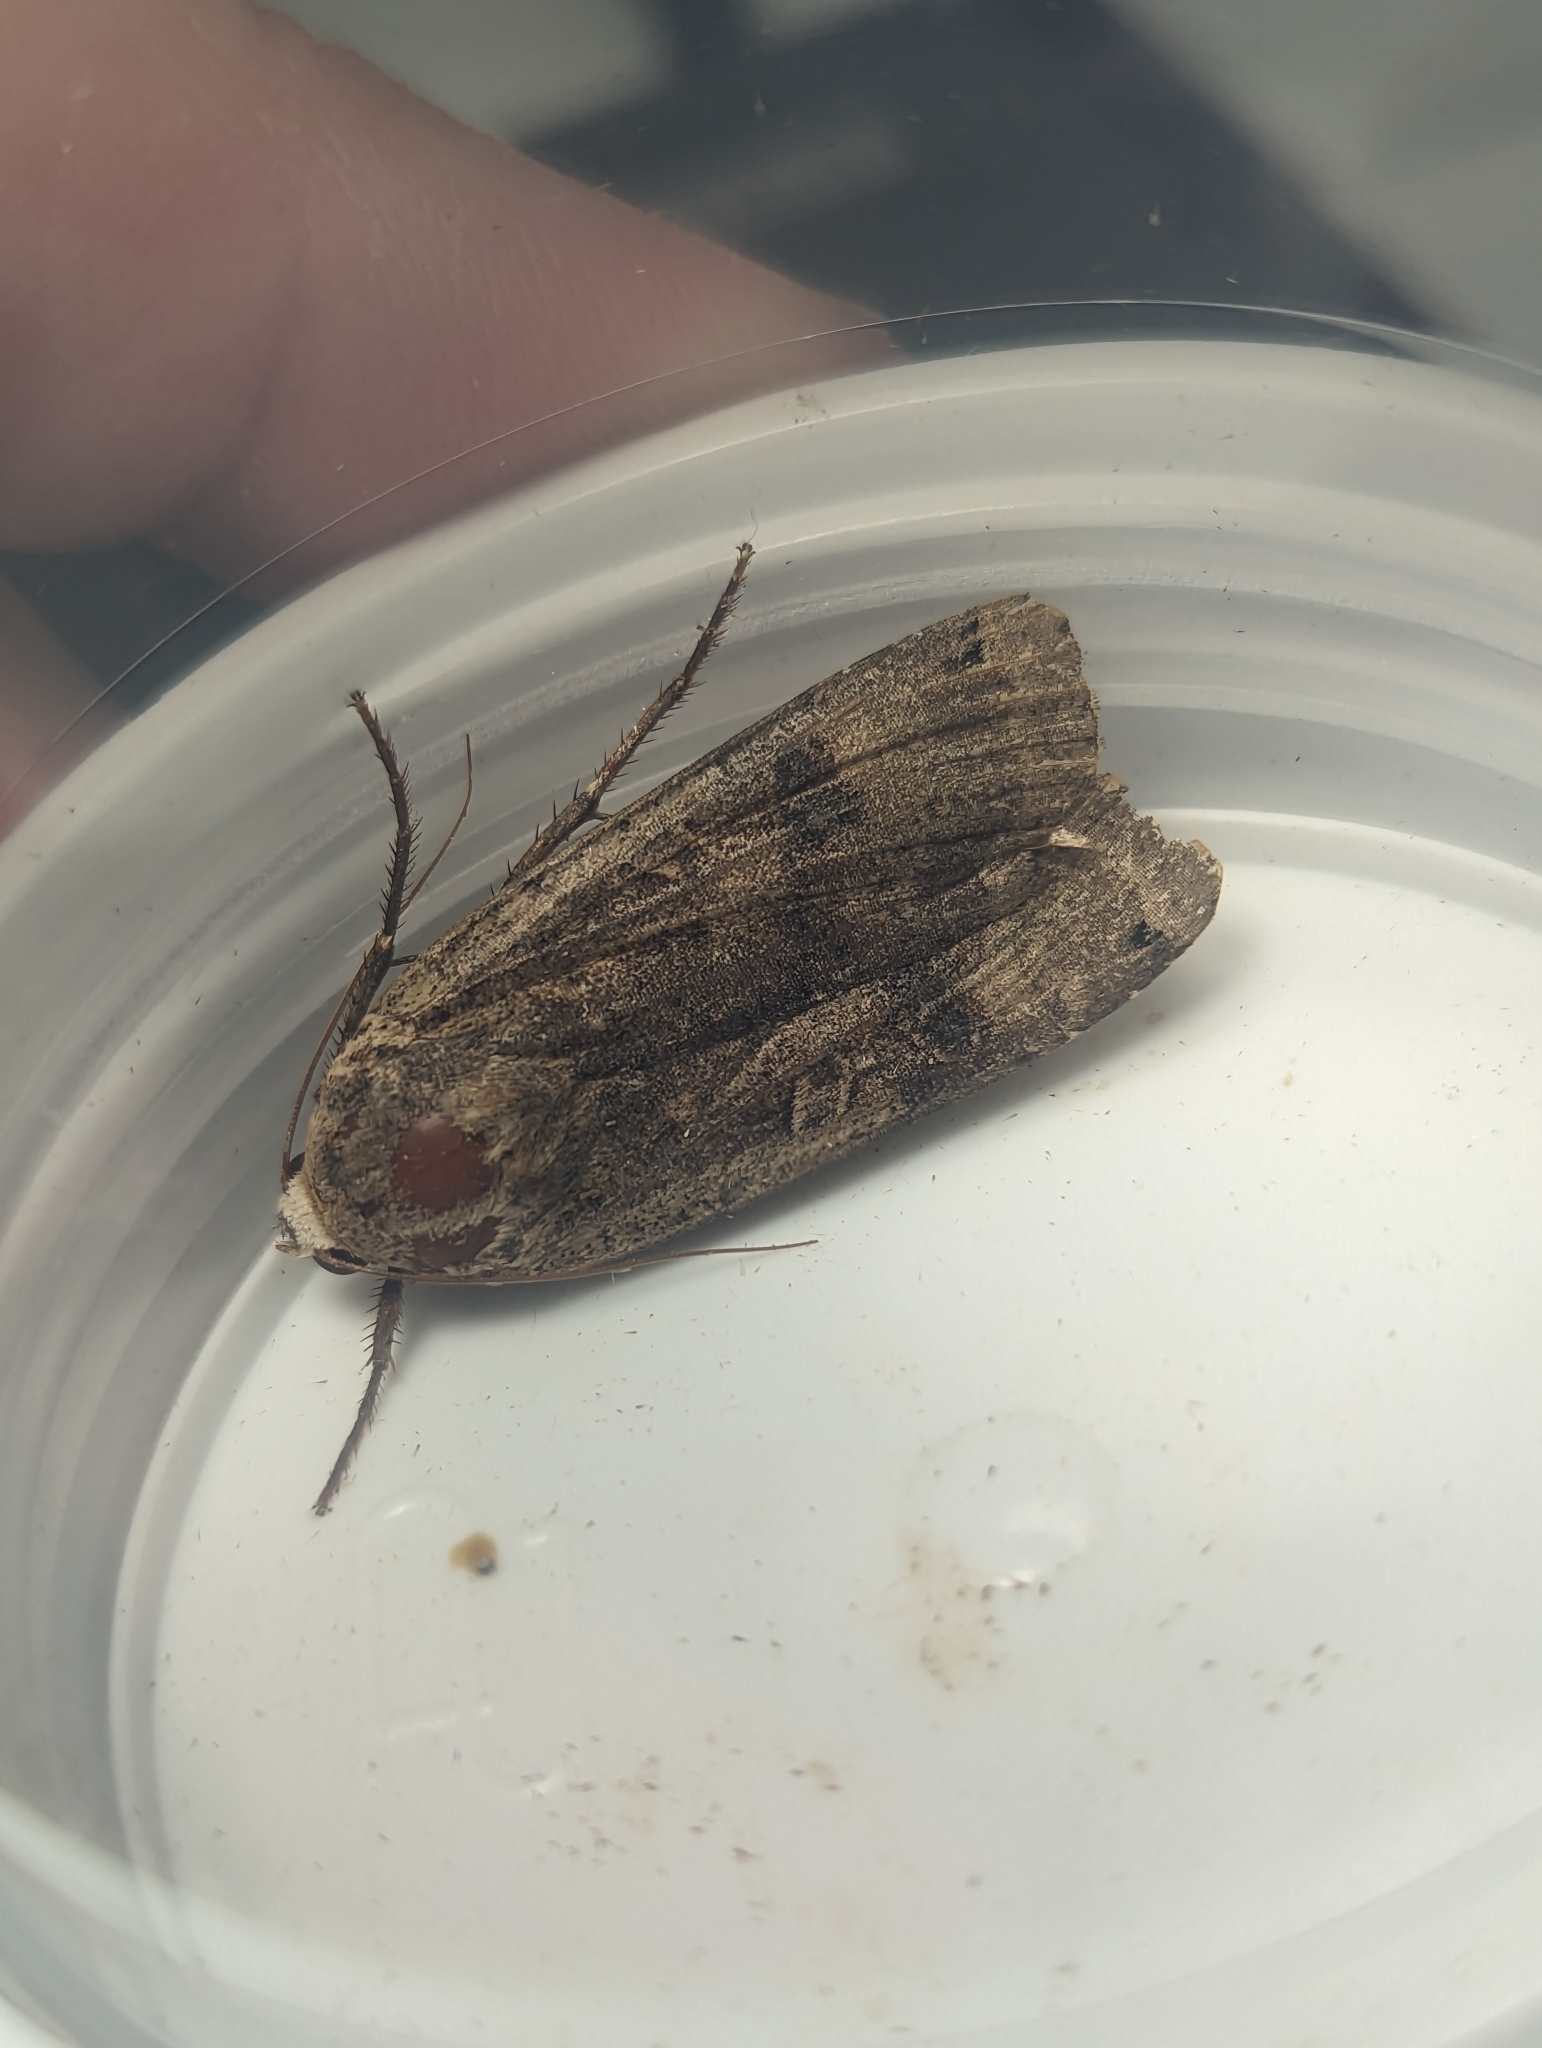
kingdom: Animalia
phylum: Arthropoda
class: Insecta
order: Lepidoptera
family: Noctuidae
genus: Noctua
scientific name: Noctua pronuba
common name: Large yellow underwing
